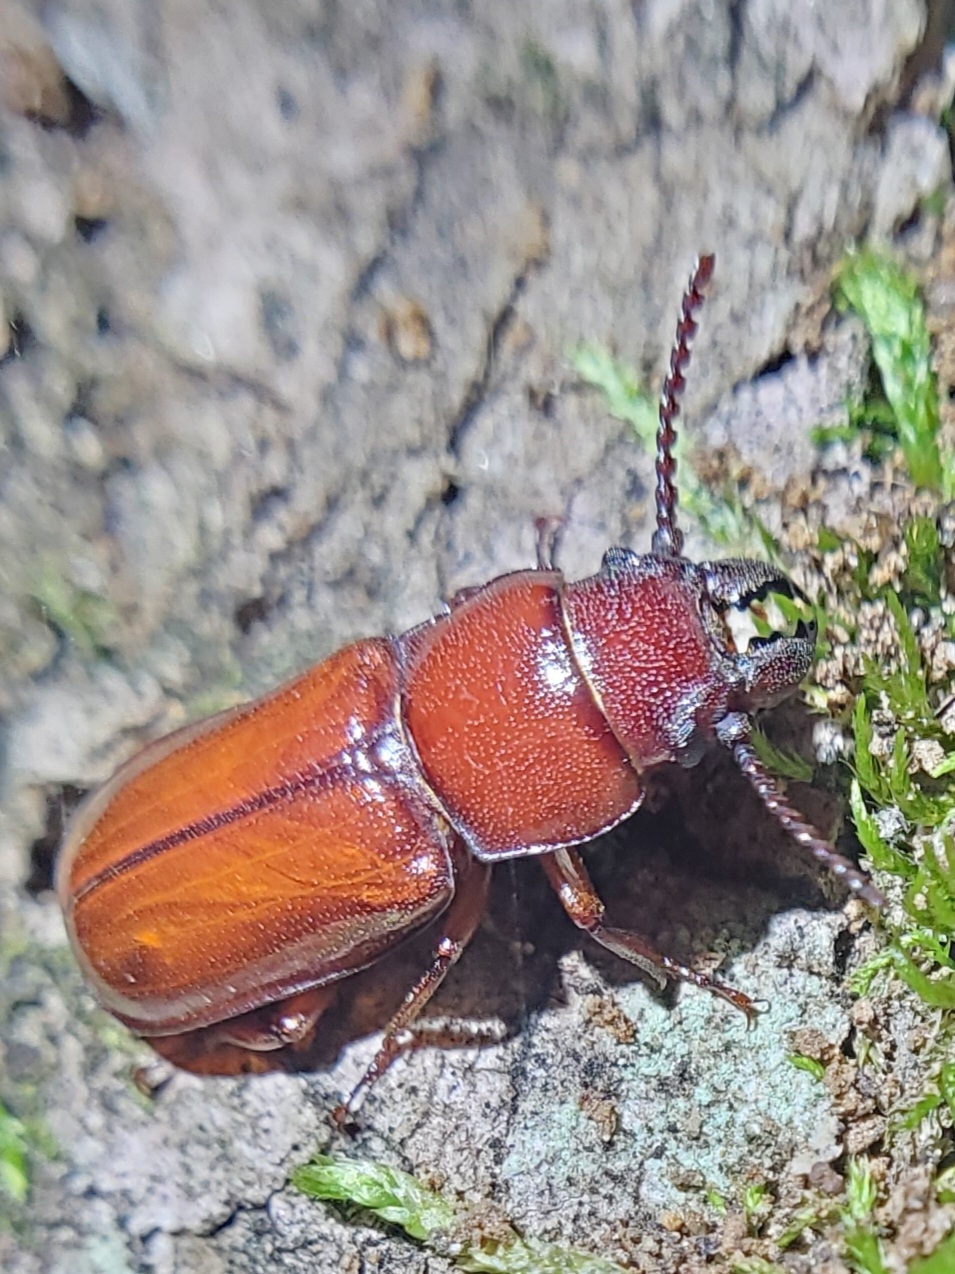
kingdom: Animalia
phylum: Arthropoda
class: Insecta
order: Coleoptera
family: Cerambycidae
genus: Neandra
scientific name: Neandra brunnea
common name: Pole borer
